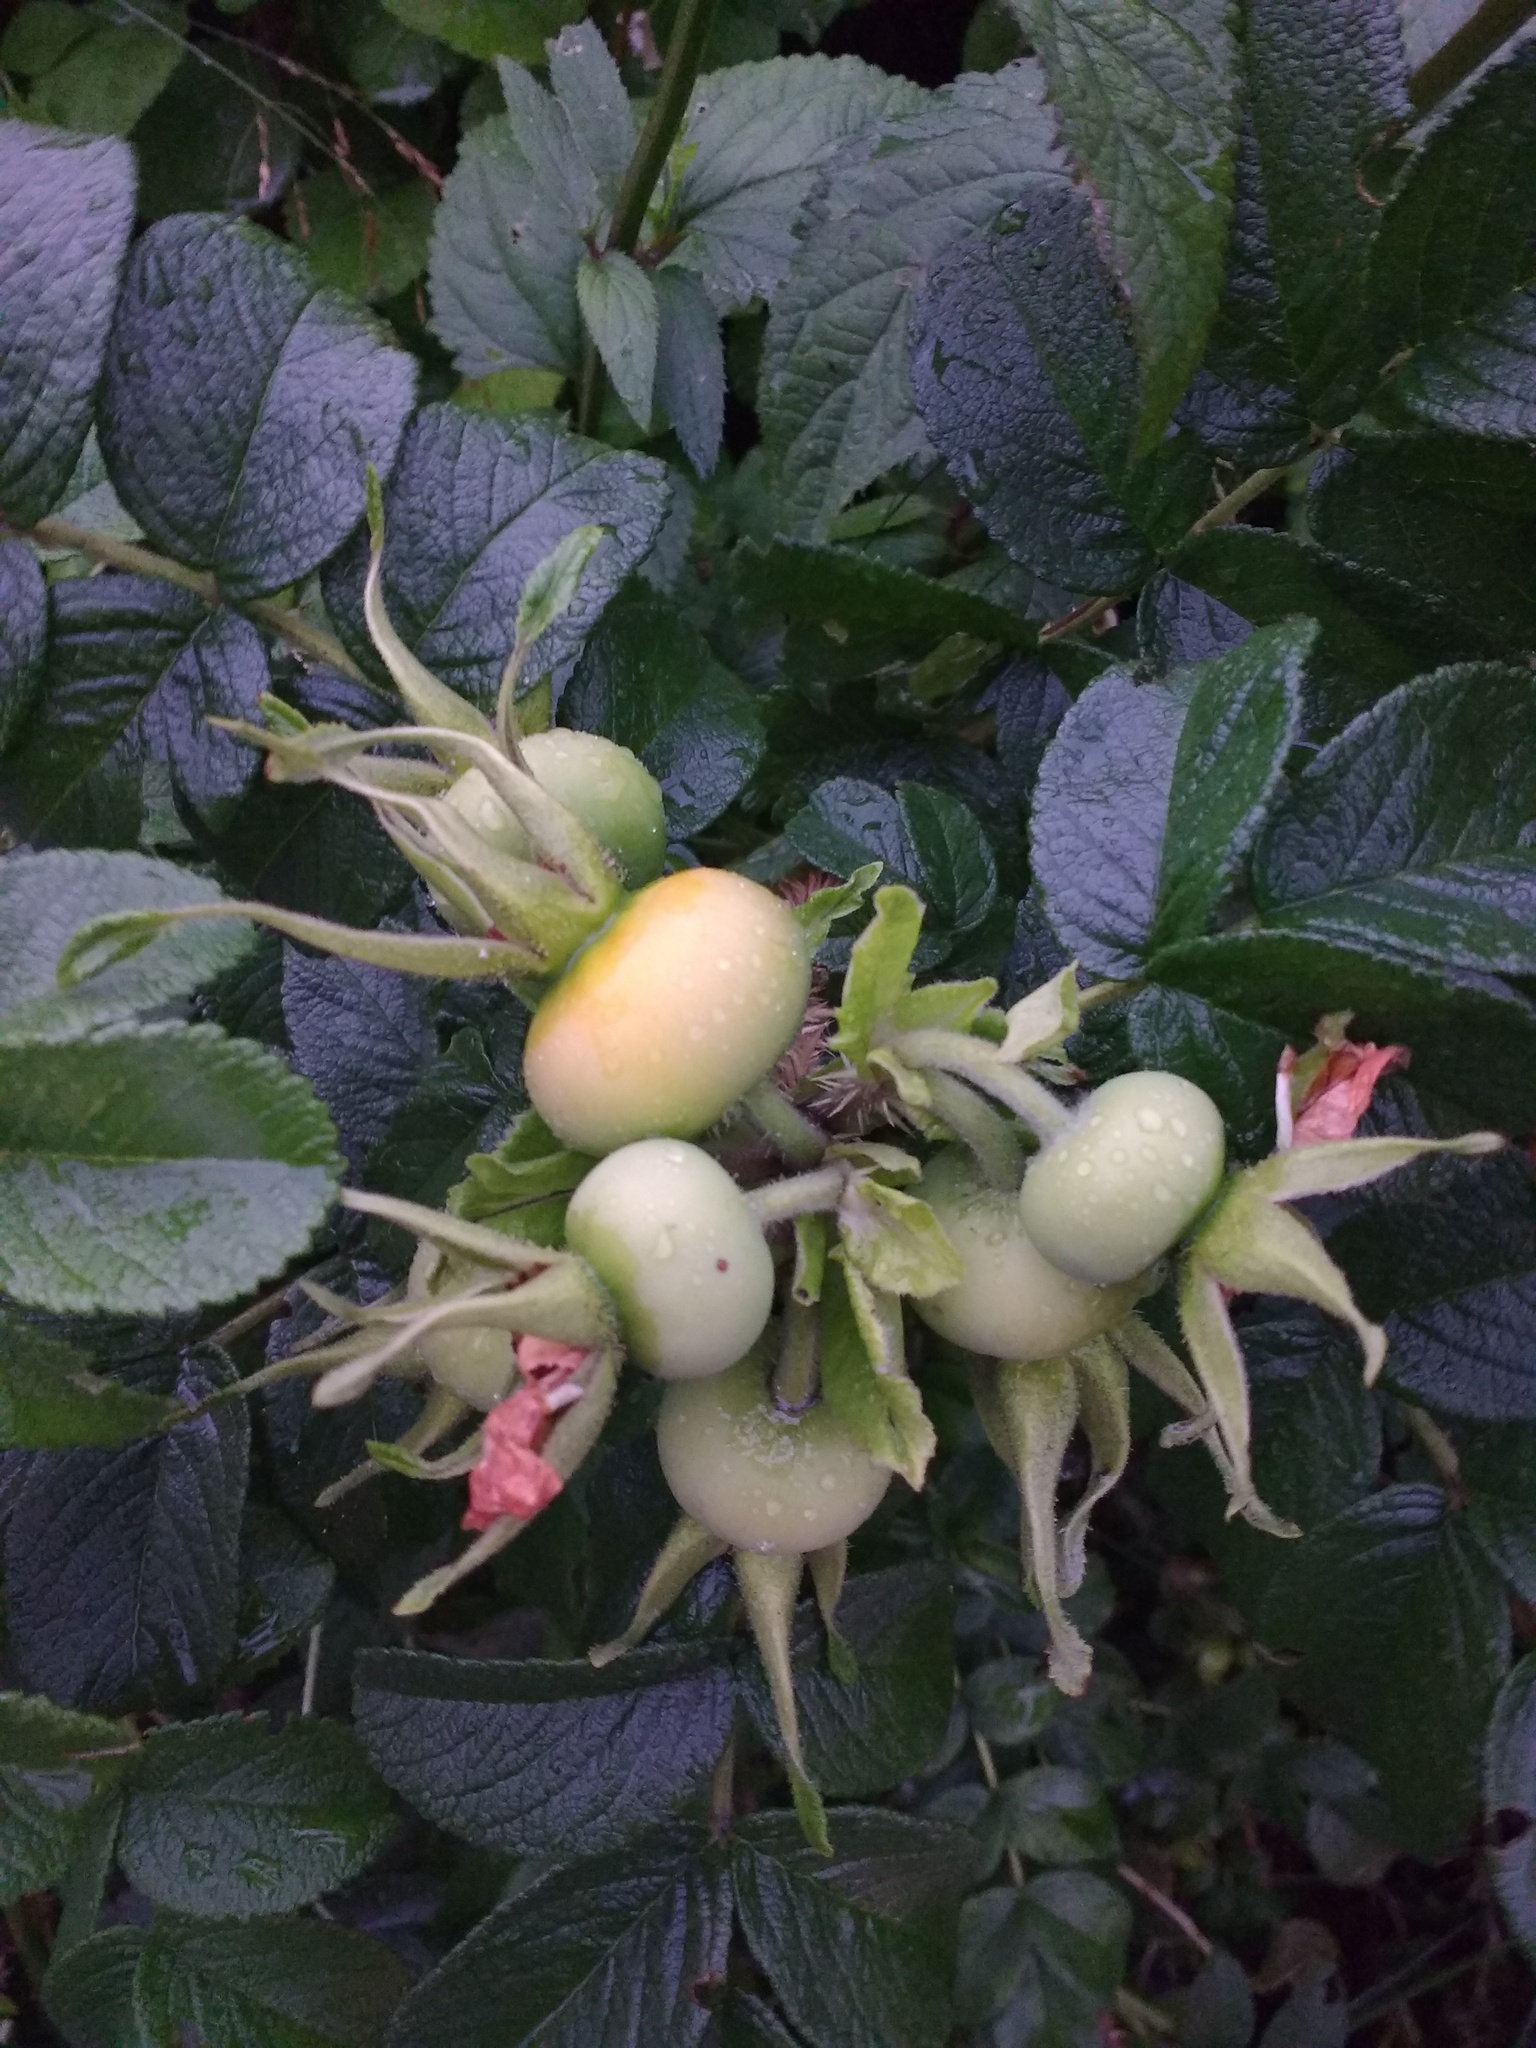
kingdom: Plantae
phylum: Tracheophyta
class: Magnoliopsida
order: Rosales
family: Rosaceae
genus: Rosa
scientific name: Rosa rugosa
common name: Japanese rose
